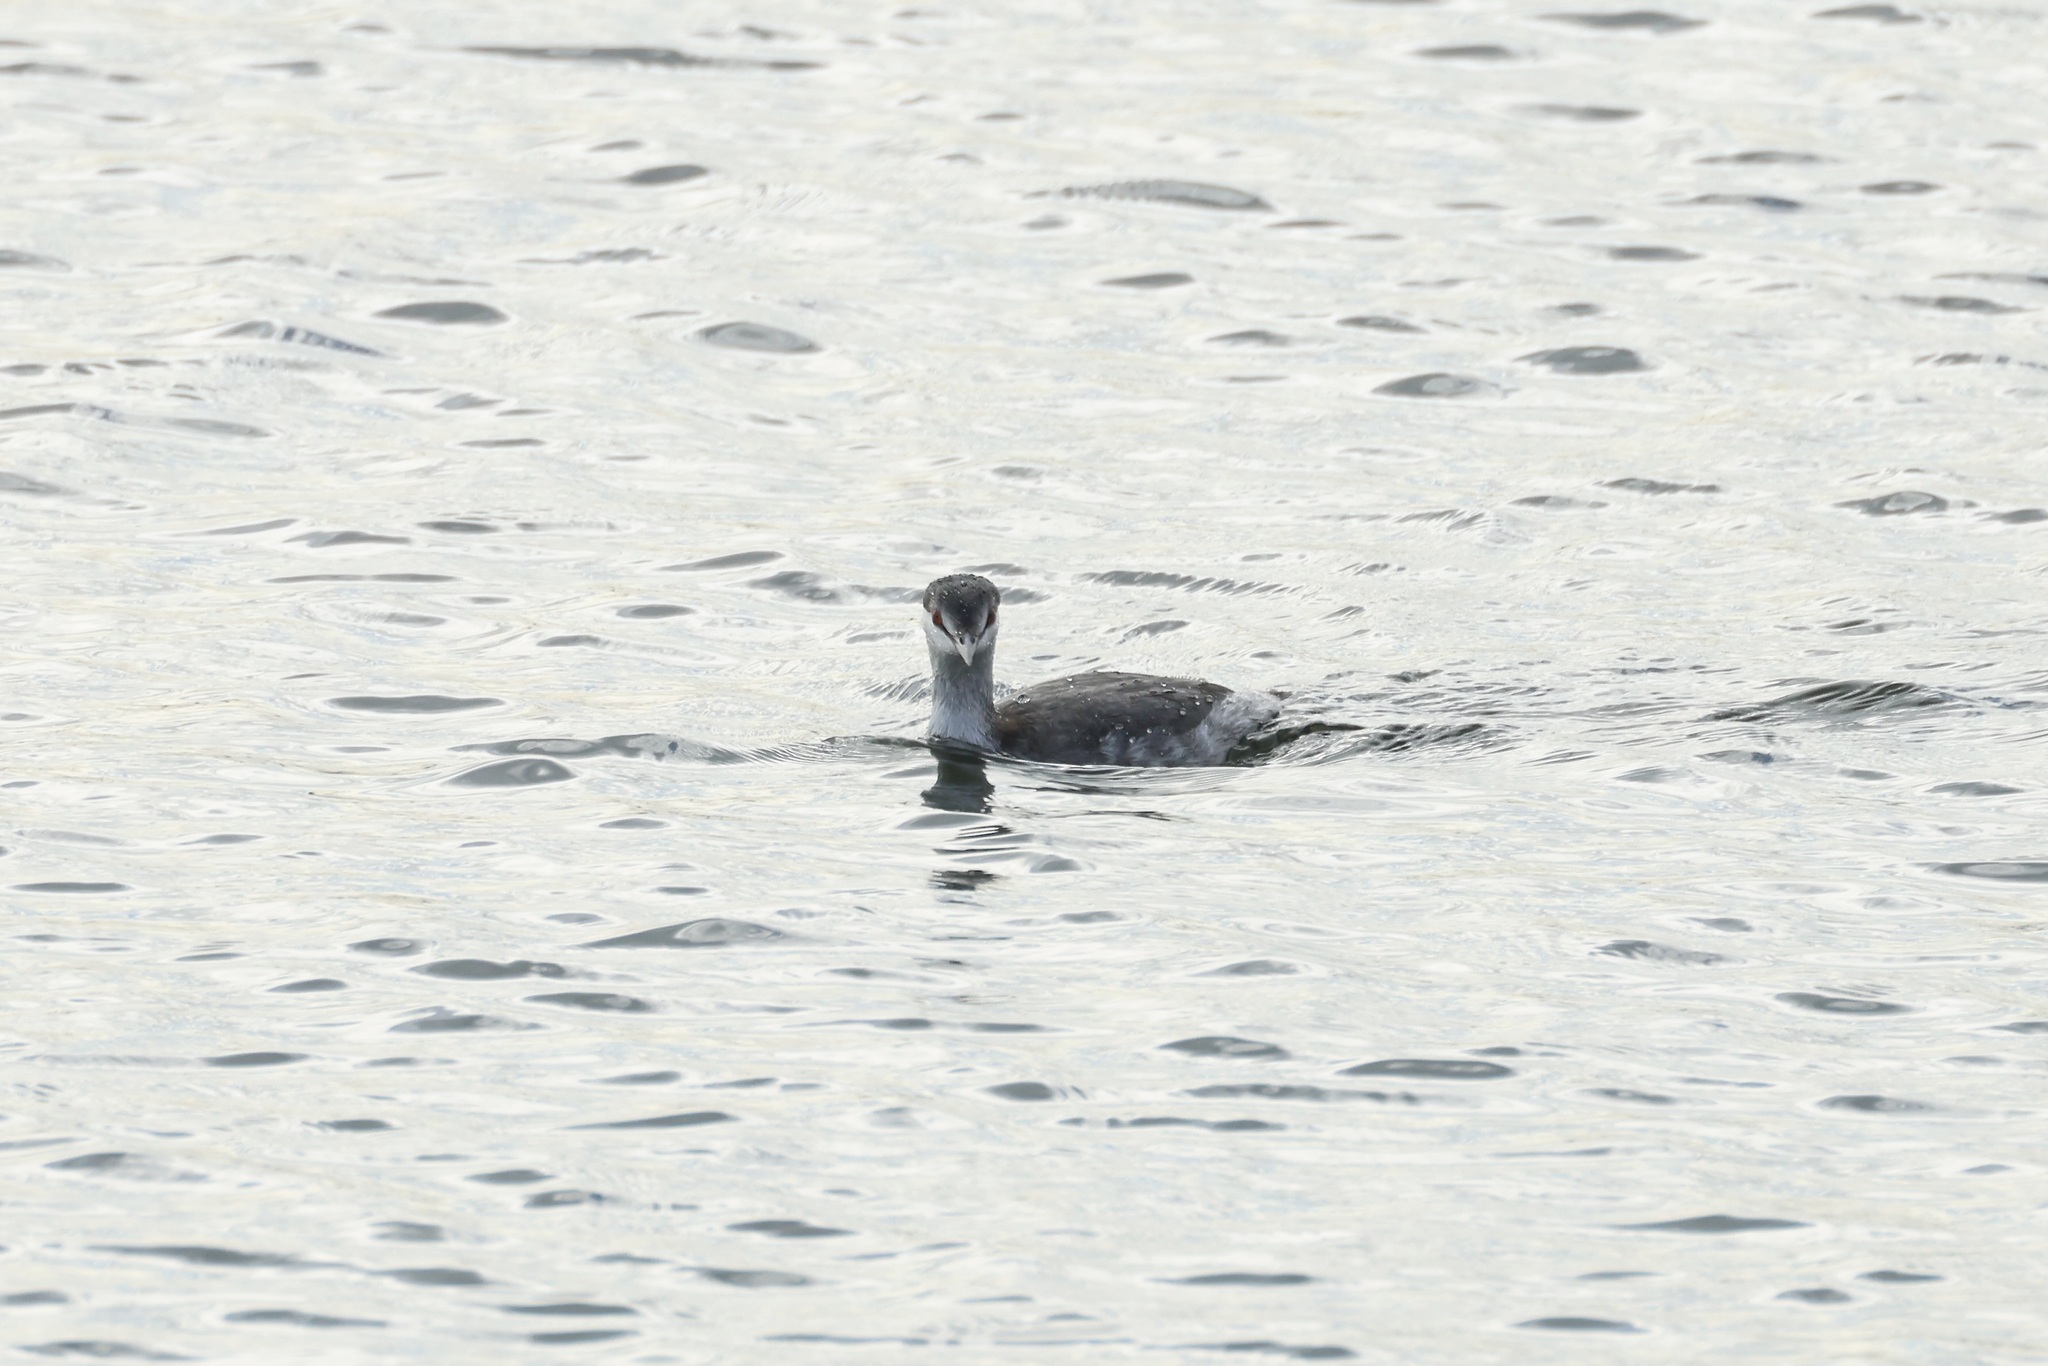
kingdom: Animalia
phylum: Chordata
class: Aves
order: Podicipediformes
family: Podicipedidae
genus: Podiceps
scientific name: Podiceps auritus
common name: Horned grebe
